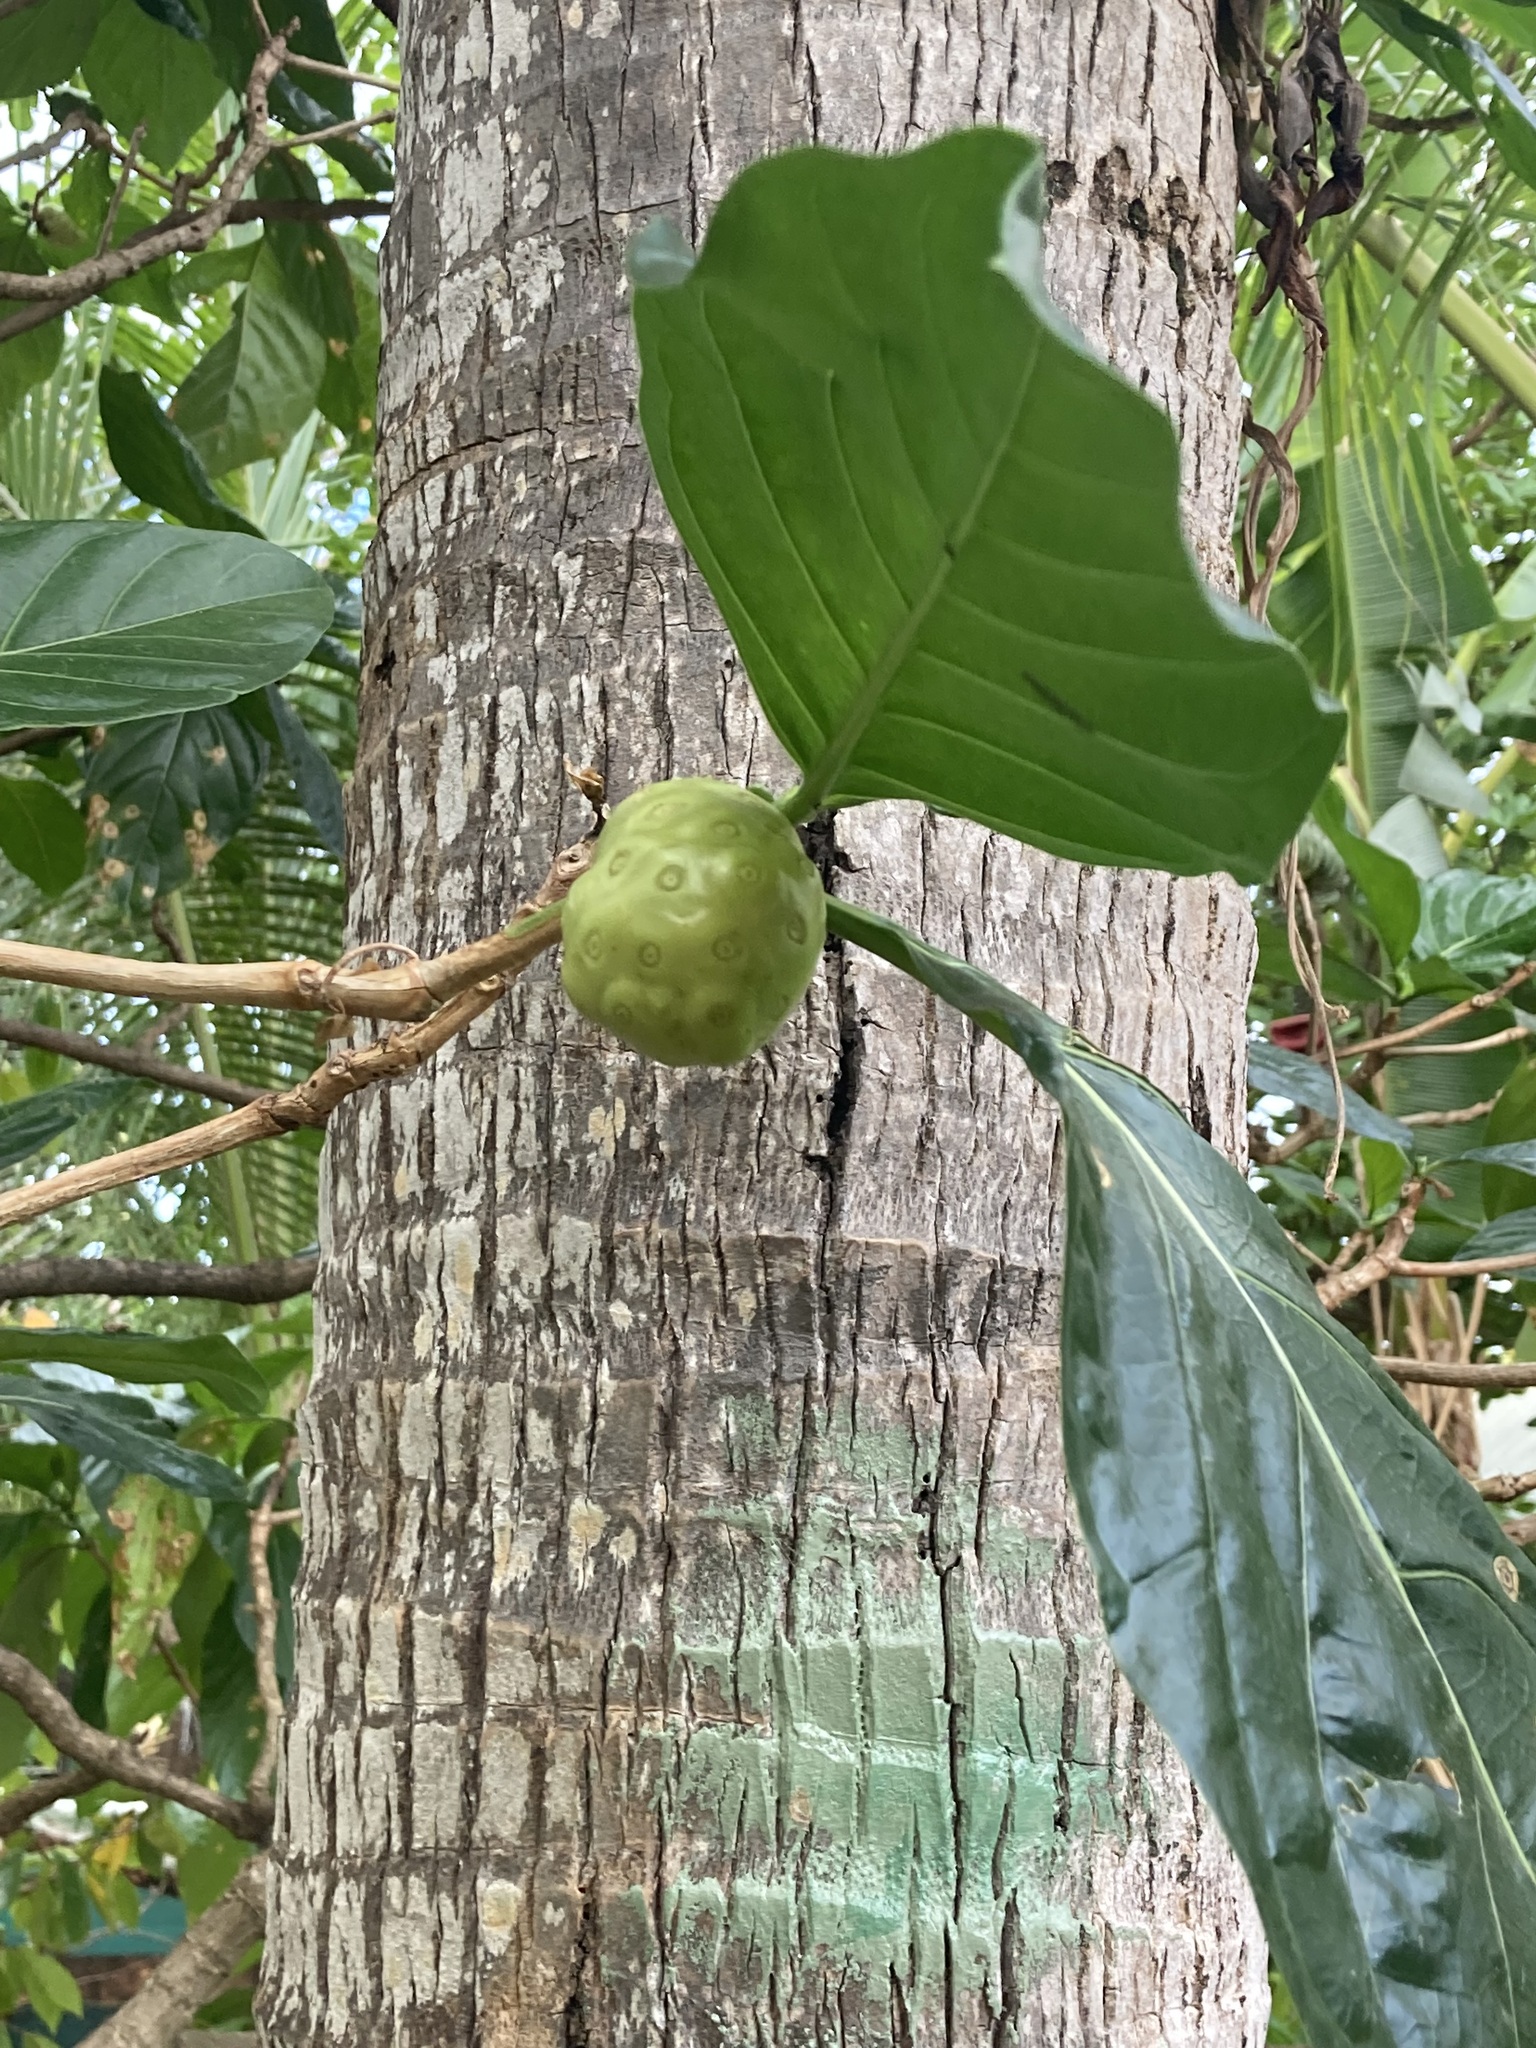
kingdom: Plantae
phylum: Tracheophyta
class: Magnoliopsida
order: Gentianales
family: Rubiaceae
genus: Morinda
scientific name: Morinda citrifolia
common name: Indian-mulberry
